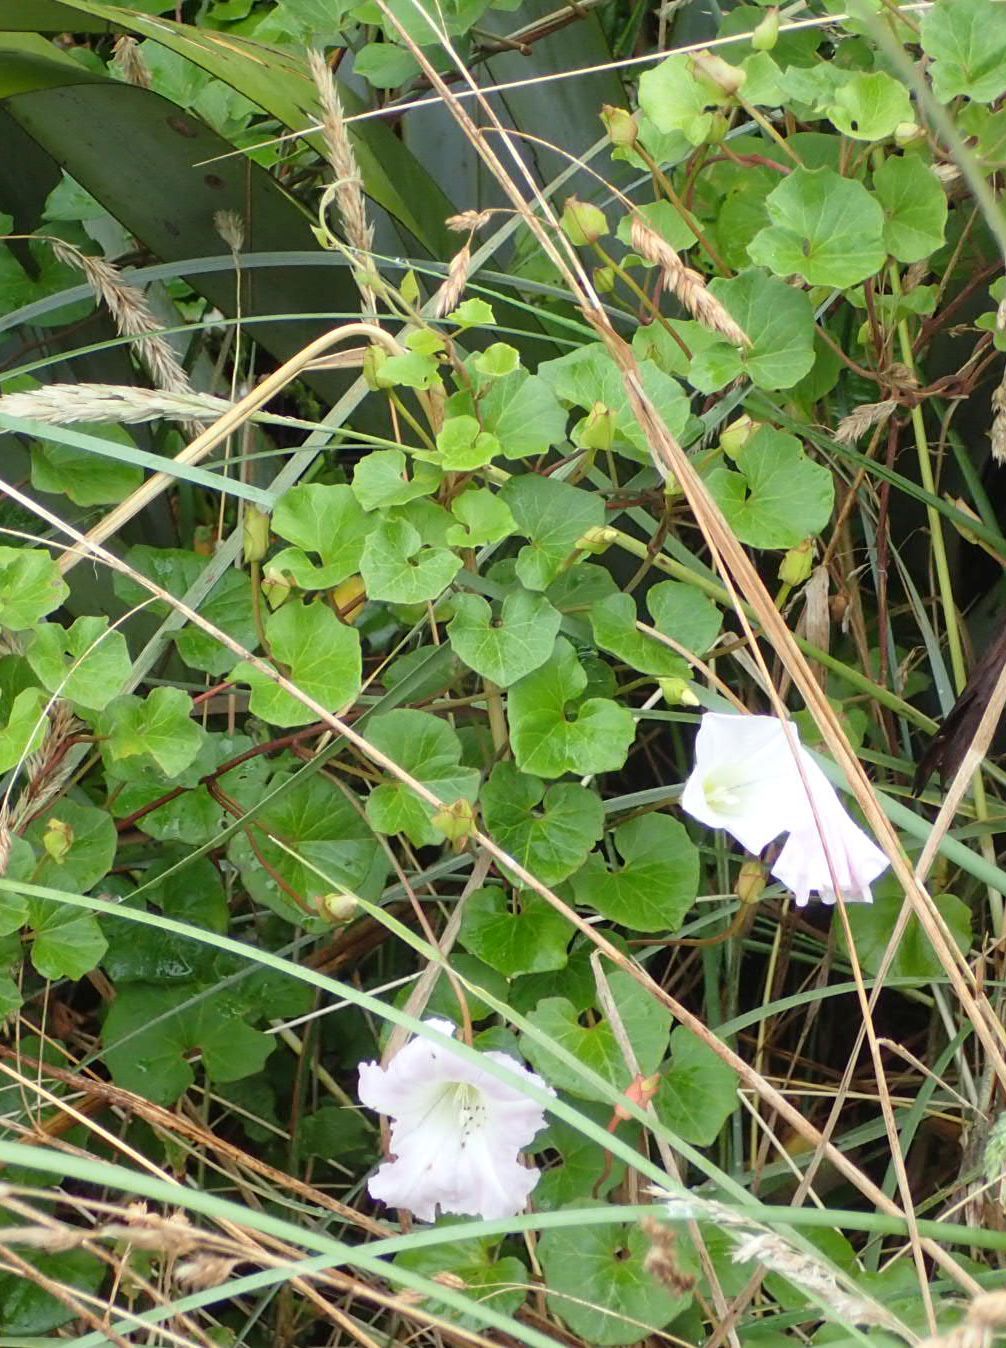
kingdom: Plantae
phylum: Tracheophyta
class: Magnoliopsida
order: Solanales
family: Convolvulaceae
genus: Calystegia
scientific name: Calystegia soldanella
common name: Sea bindweed
